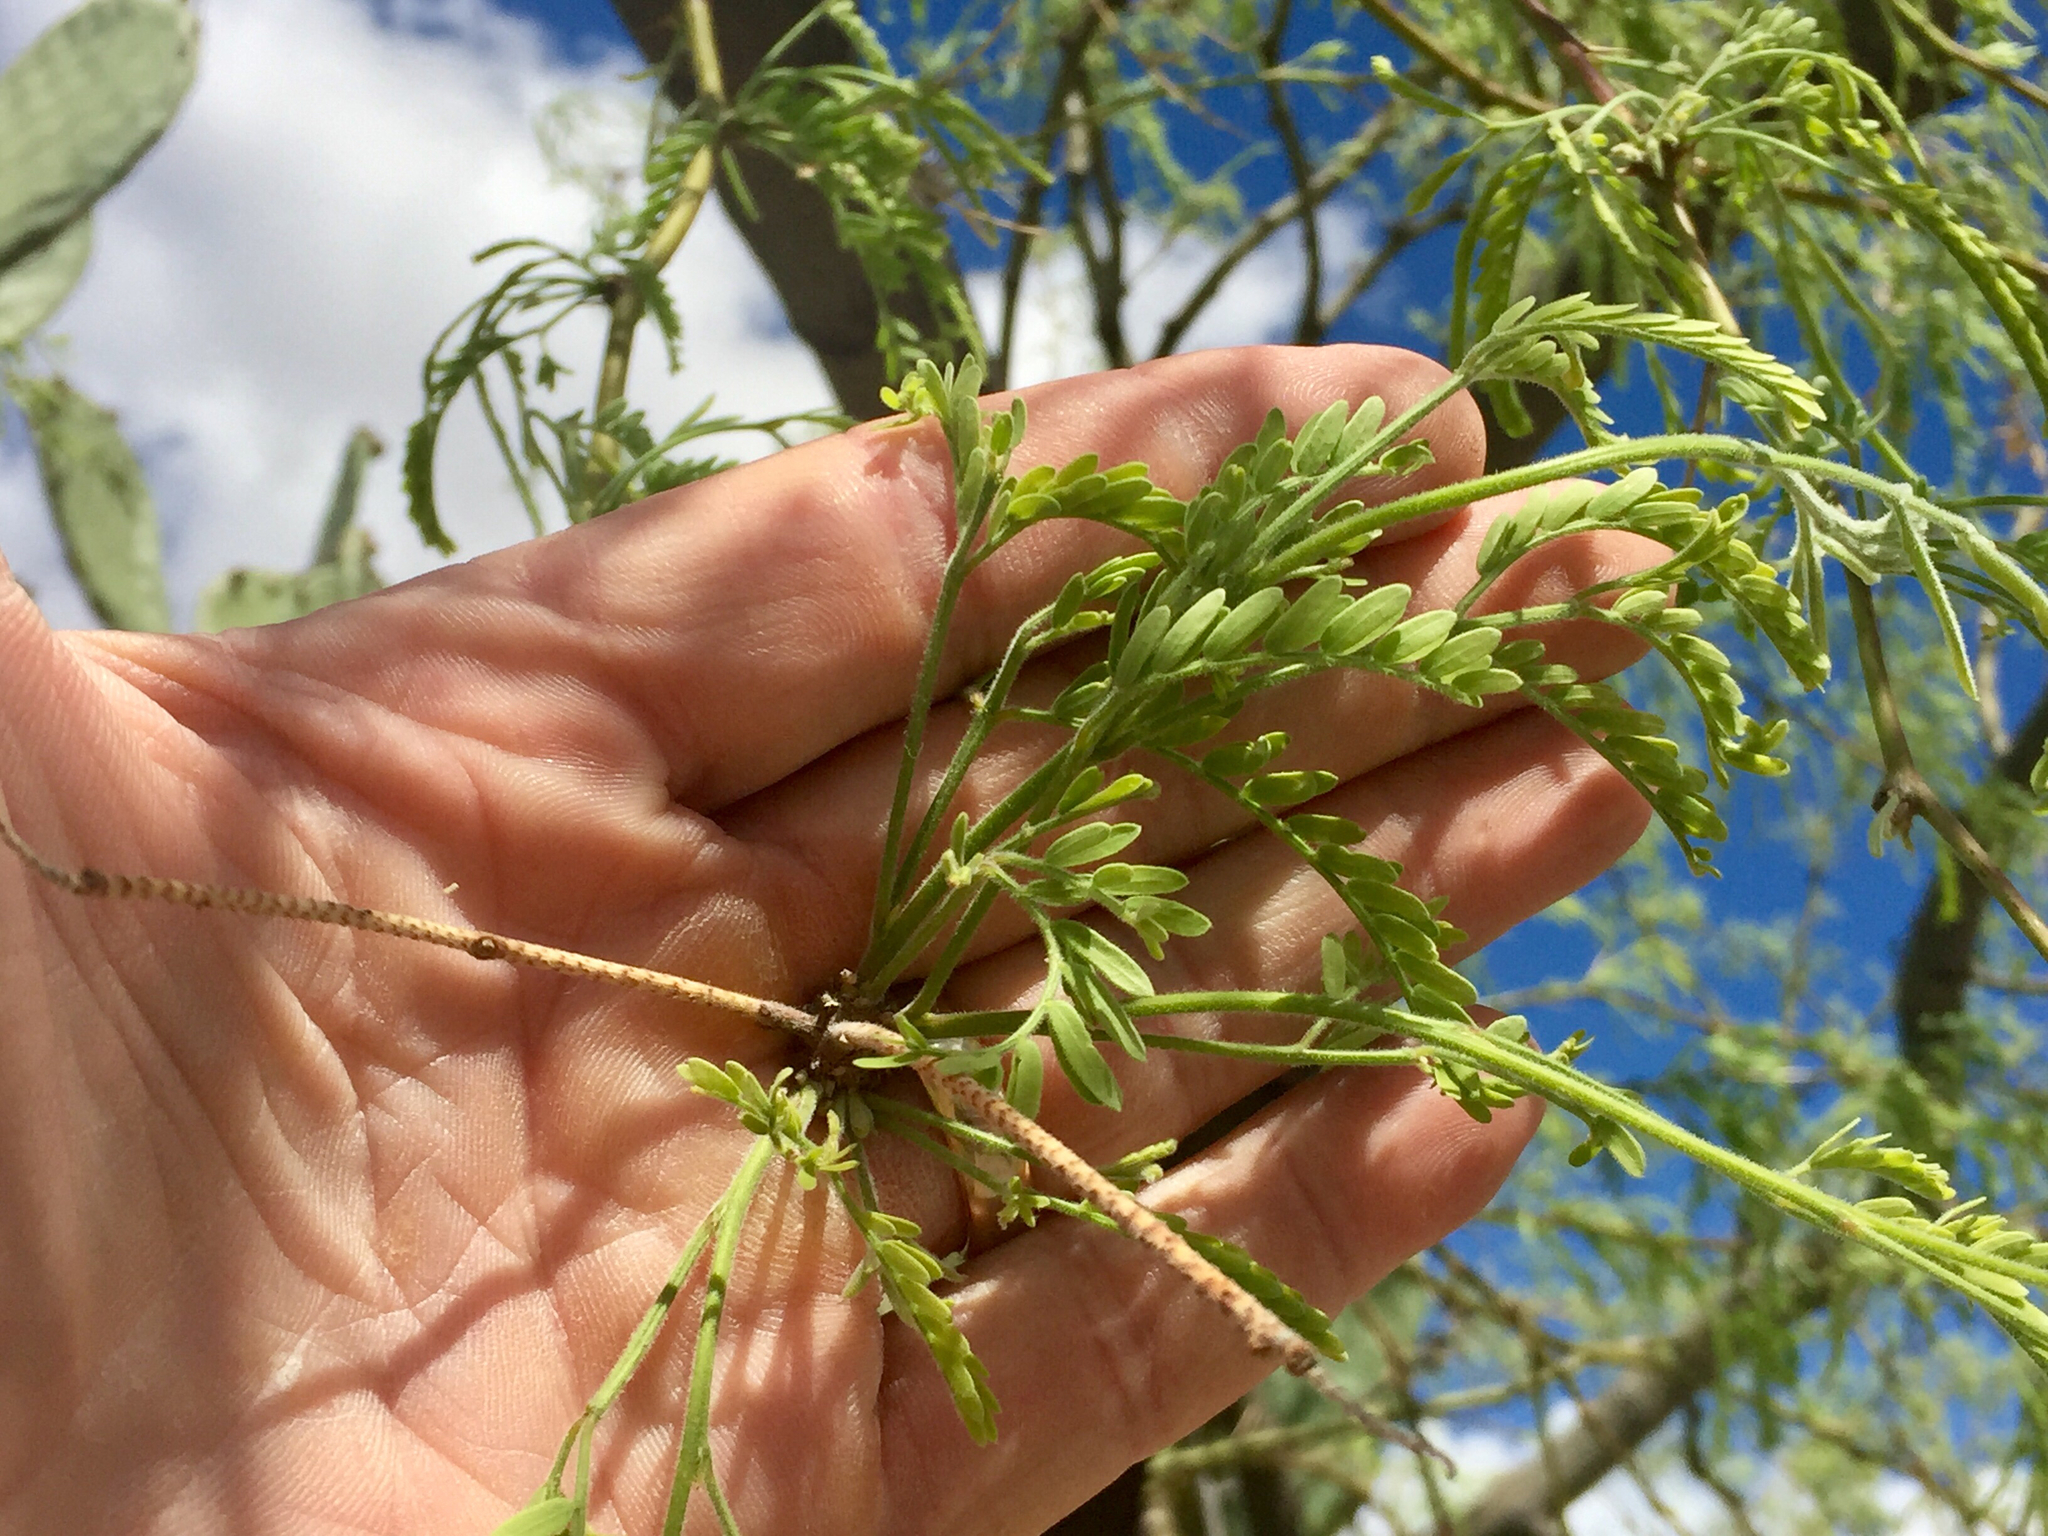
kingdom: Plantae
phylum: Tracheophyta
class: Magnoliopsida
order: Fabales
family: Fabaceae
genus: Prosopis
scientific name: Prosopis velutina
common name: Velvet mesquite
